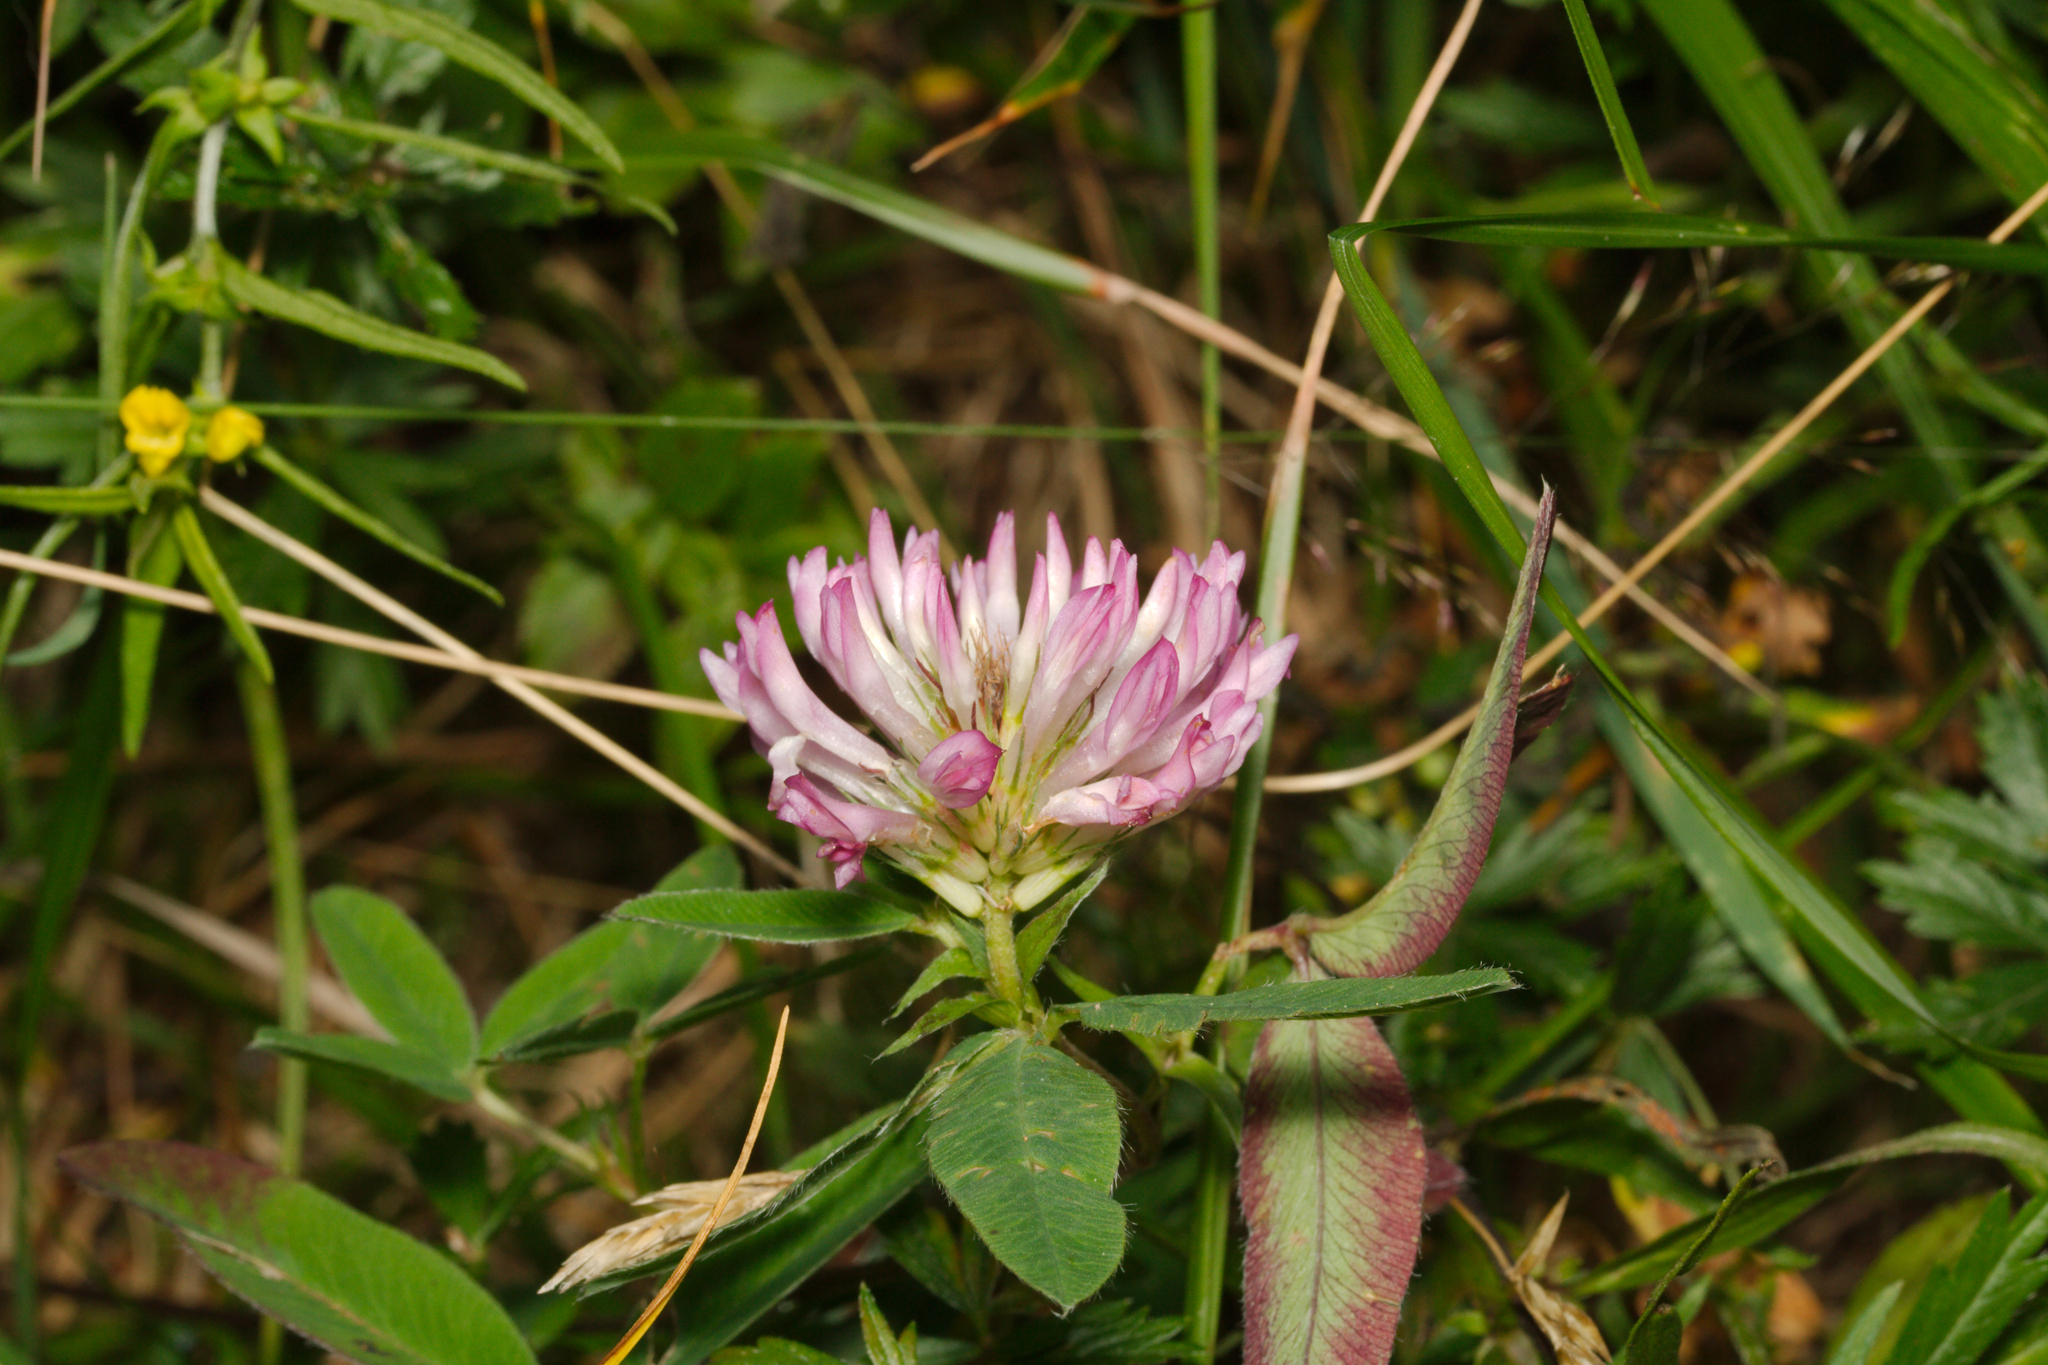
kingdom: Plantae
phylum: Tracheophyta
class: Magnoliopsida
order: Fabales
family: Fabaceae
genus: Trifolium
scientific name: Trifolium medium
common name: Zigzag clover
